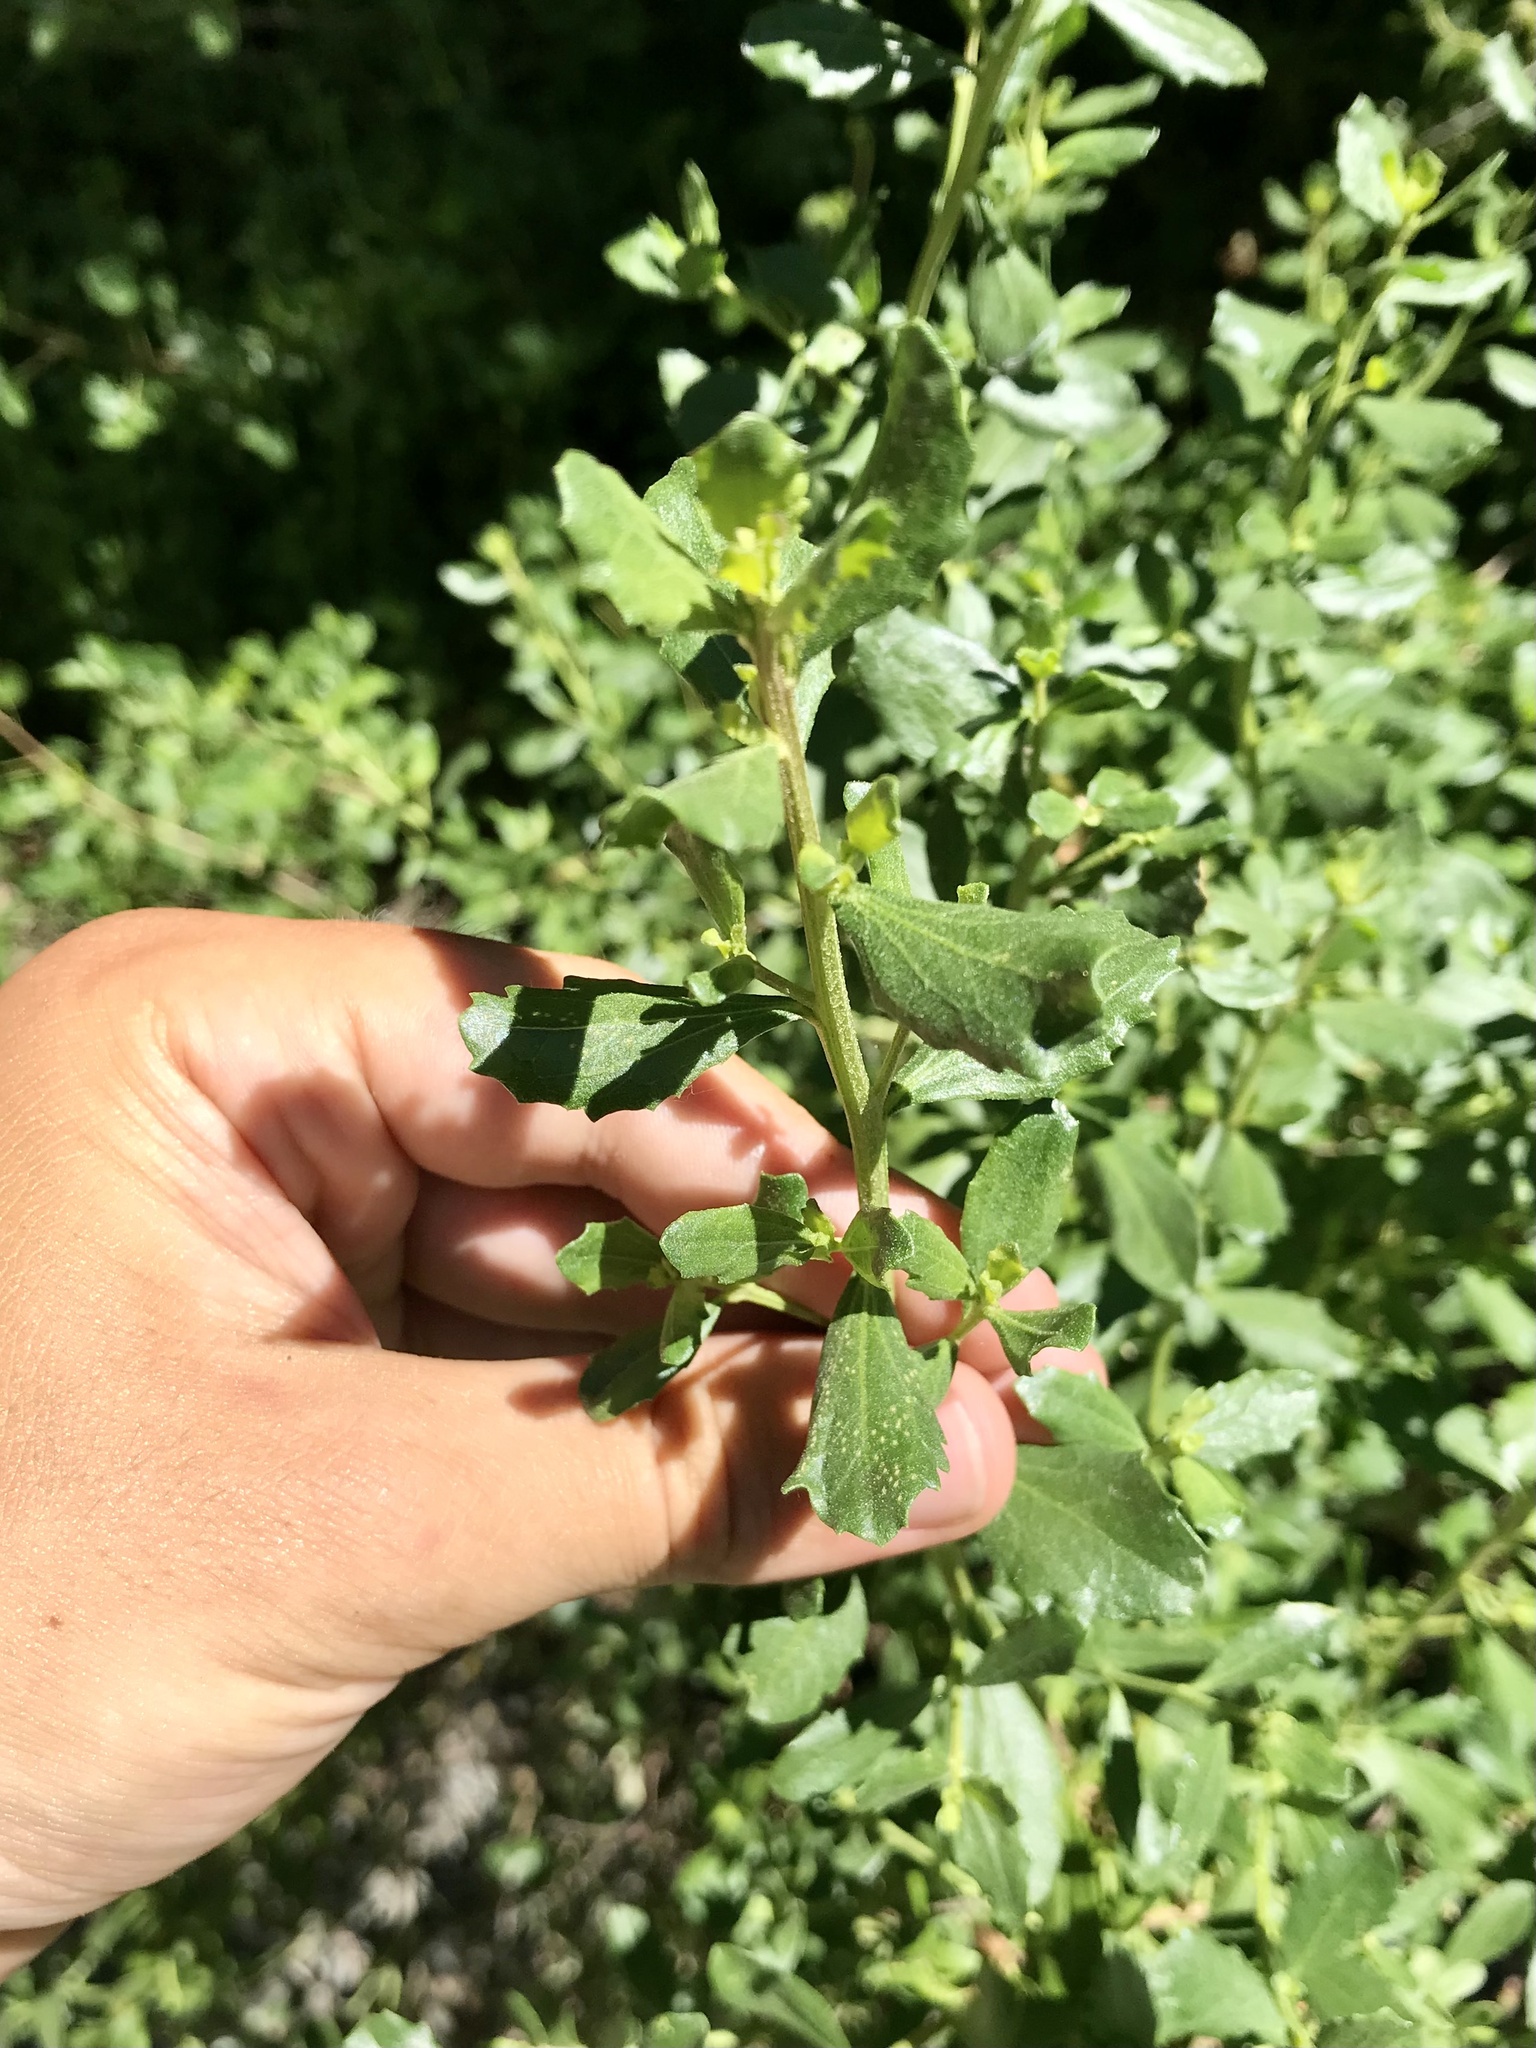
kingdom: Plantae
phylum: Tracheophyta
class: Magnoliopsida
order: Fagales
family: Fagaceae
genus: Quercus
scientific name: Quercus chrysolepis
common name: Canyon live oak
